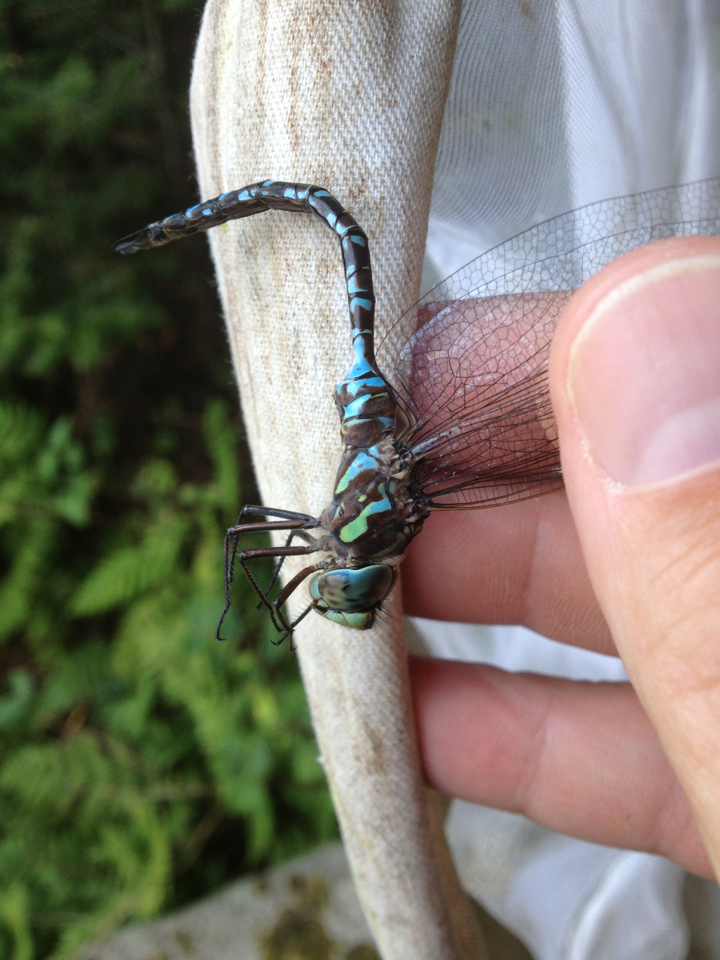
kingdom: Animalia
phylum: Arthropoda
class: Insecta
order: Odonata
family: Aeshnidae
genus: Aeshna
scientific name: Aeshna canadensis
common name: Canada darner
